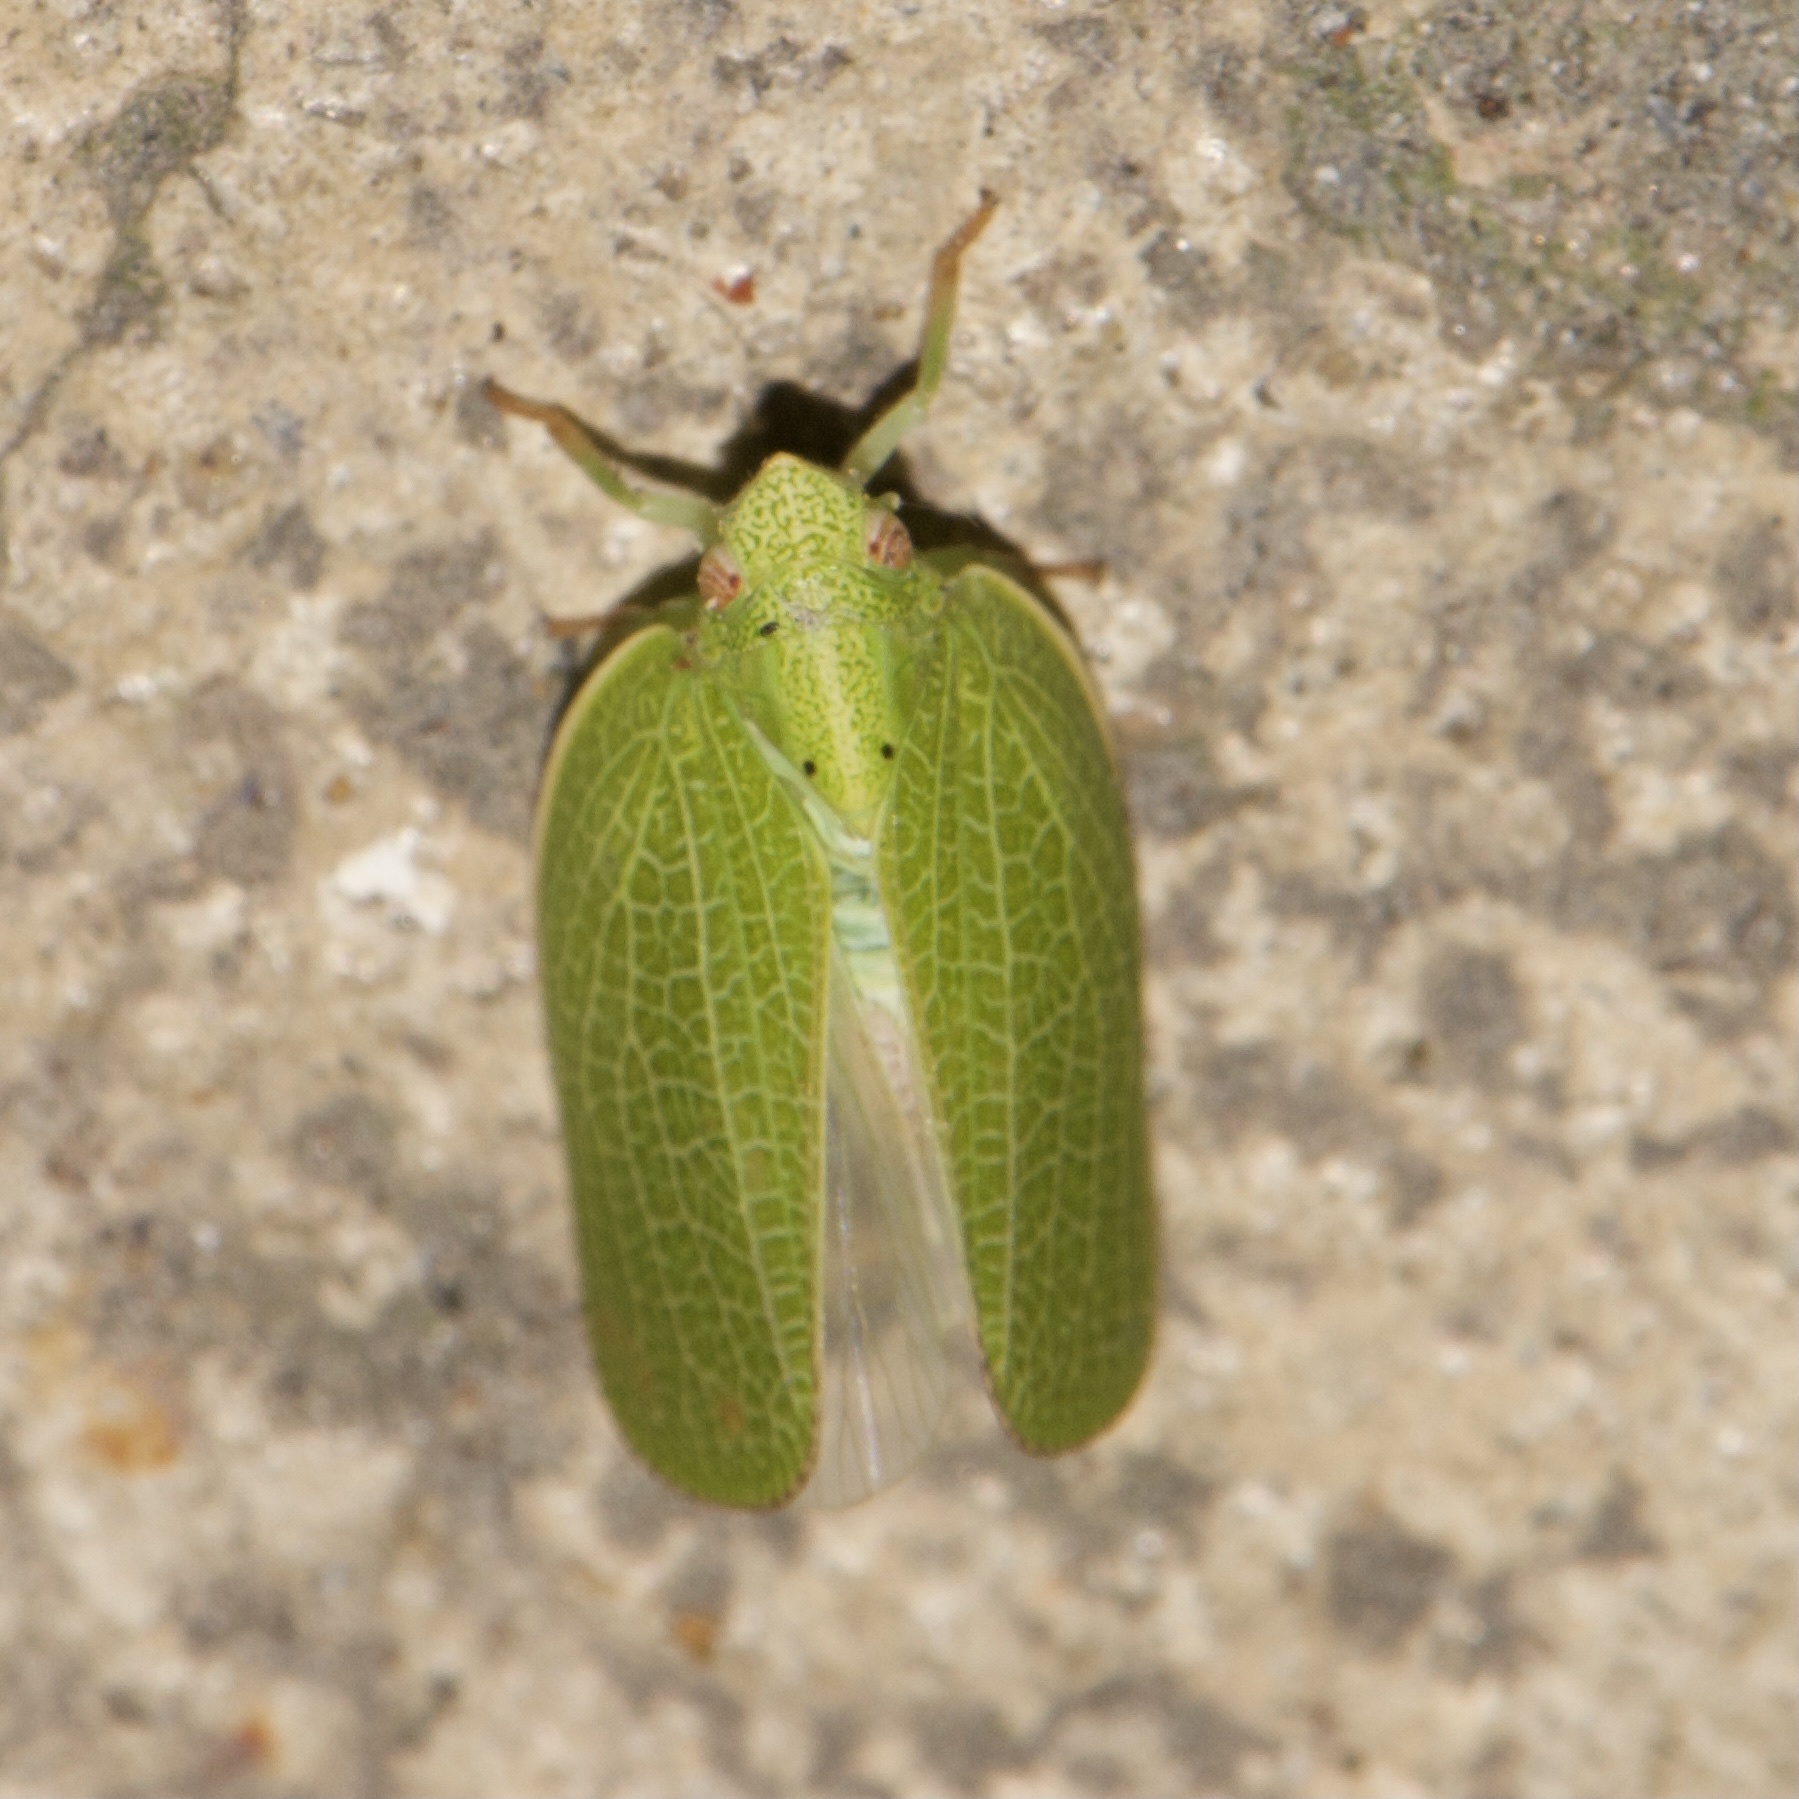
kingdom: Animalia
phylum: Arthropoda
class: Insecta
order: Hemiptera
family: Acanaloniidae
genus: Acanalonia
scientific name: Acanalonia conica
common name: Green cone-headed planthopper
